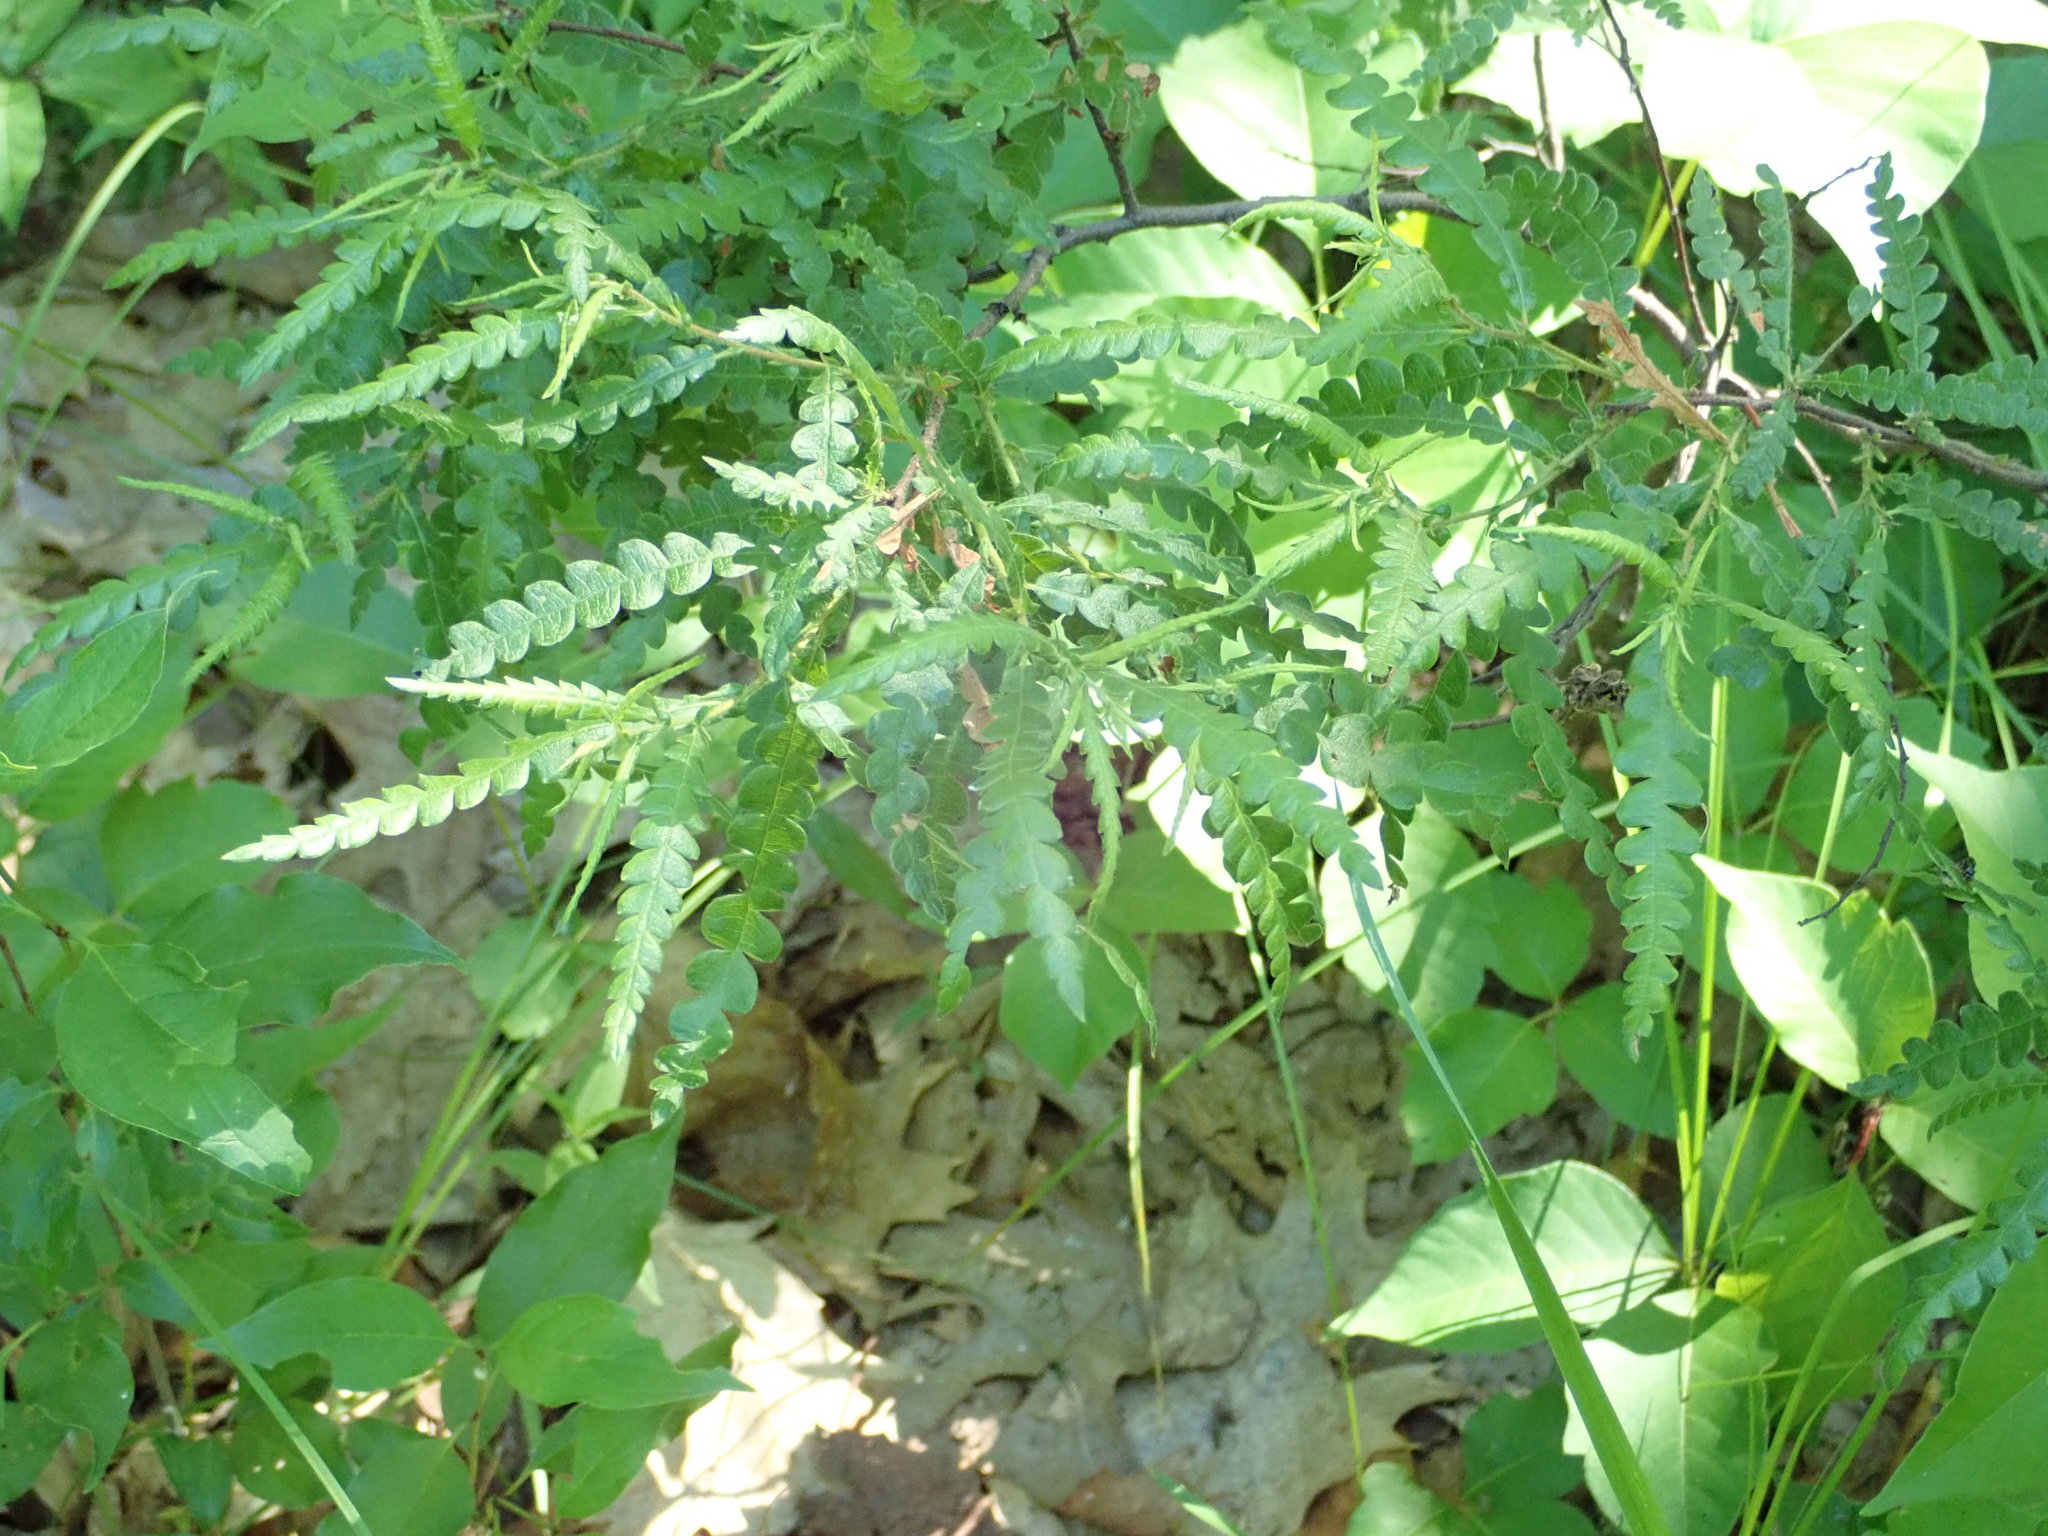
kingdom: Plantae
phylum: Tracheophyta
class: Magnoliopsida
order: Fagales
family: Myricaceae
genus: Comptonia
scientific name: Comptonia peregrina
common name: Sweet-fern
